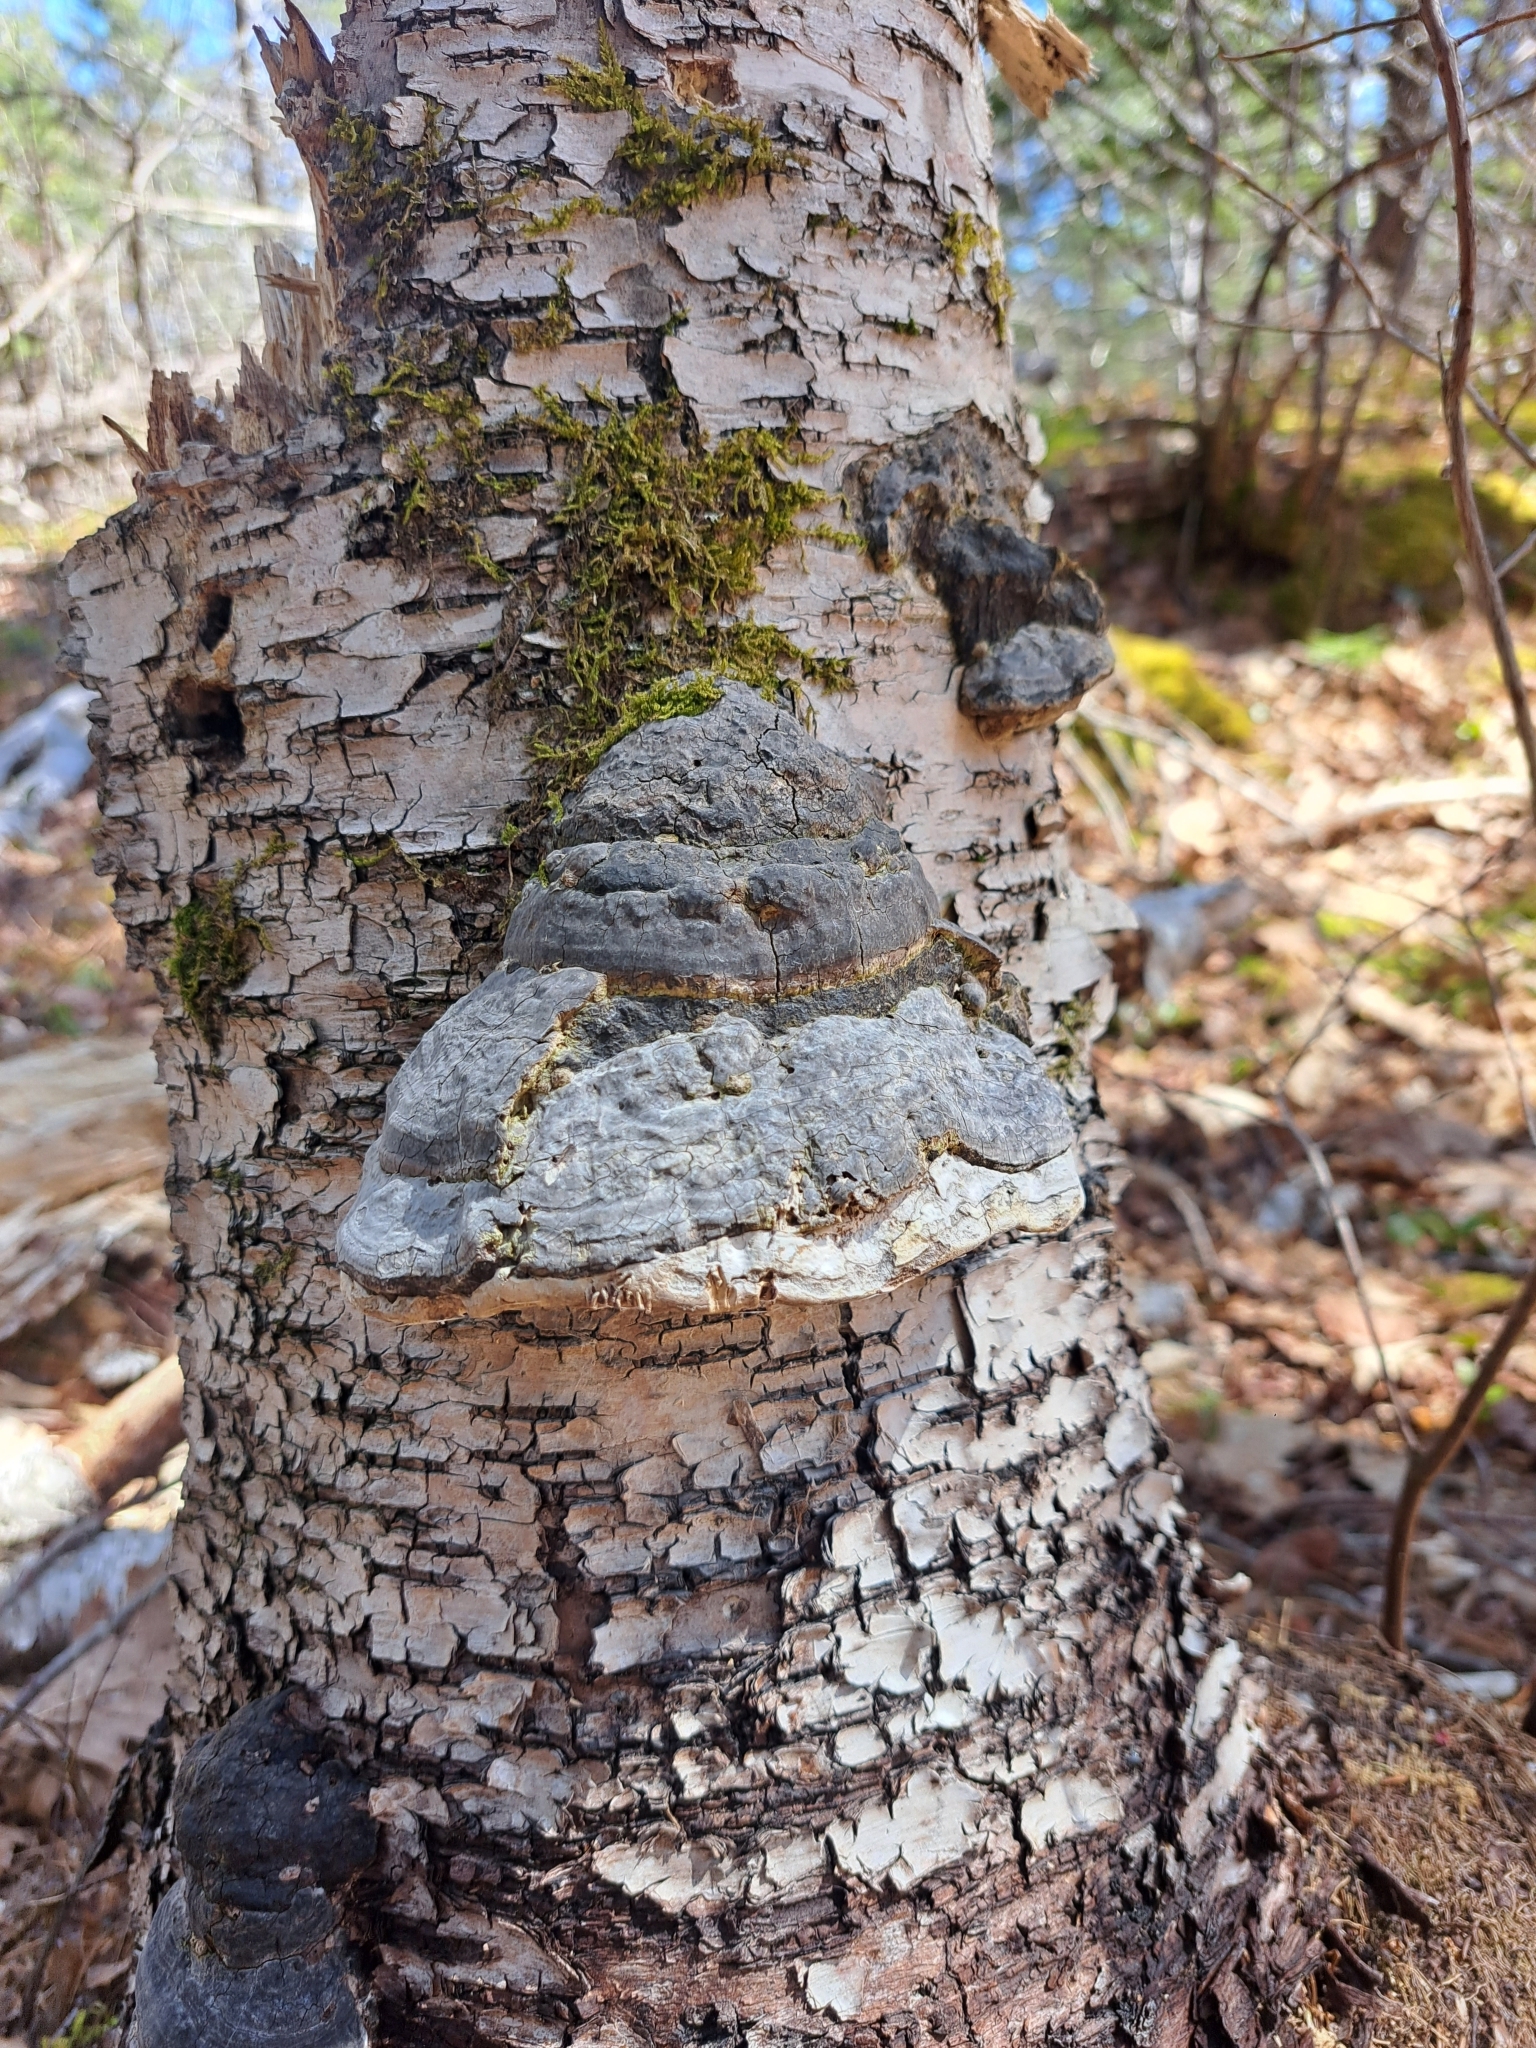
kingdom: Fungi
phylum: Basidiomycota
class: Agaricomycetes
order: Polyporales
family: Polyporaceae
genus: Fomes
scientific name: Fomes fomentarius
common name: Hoof fungus
